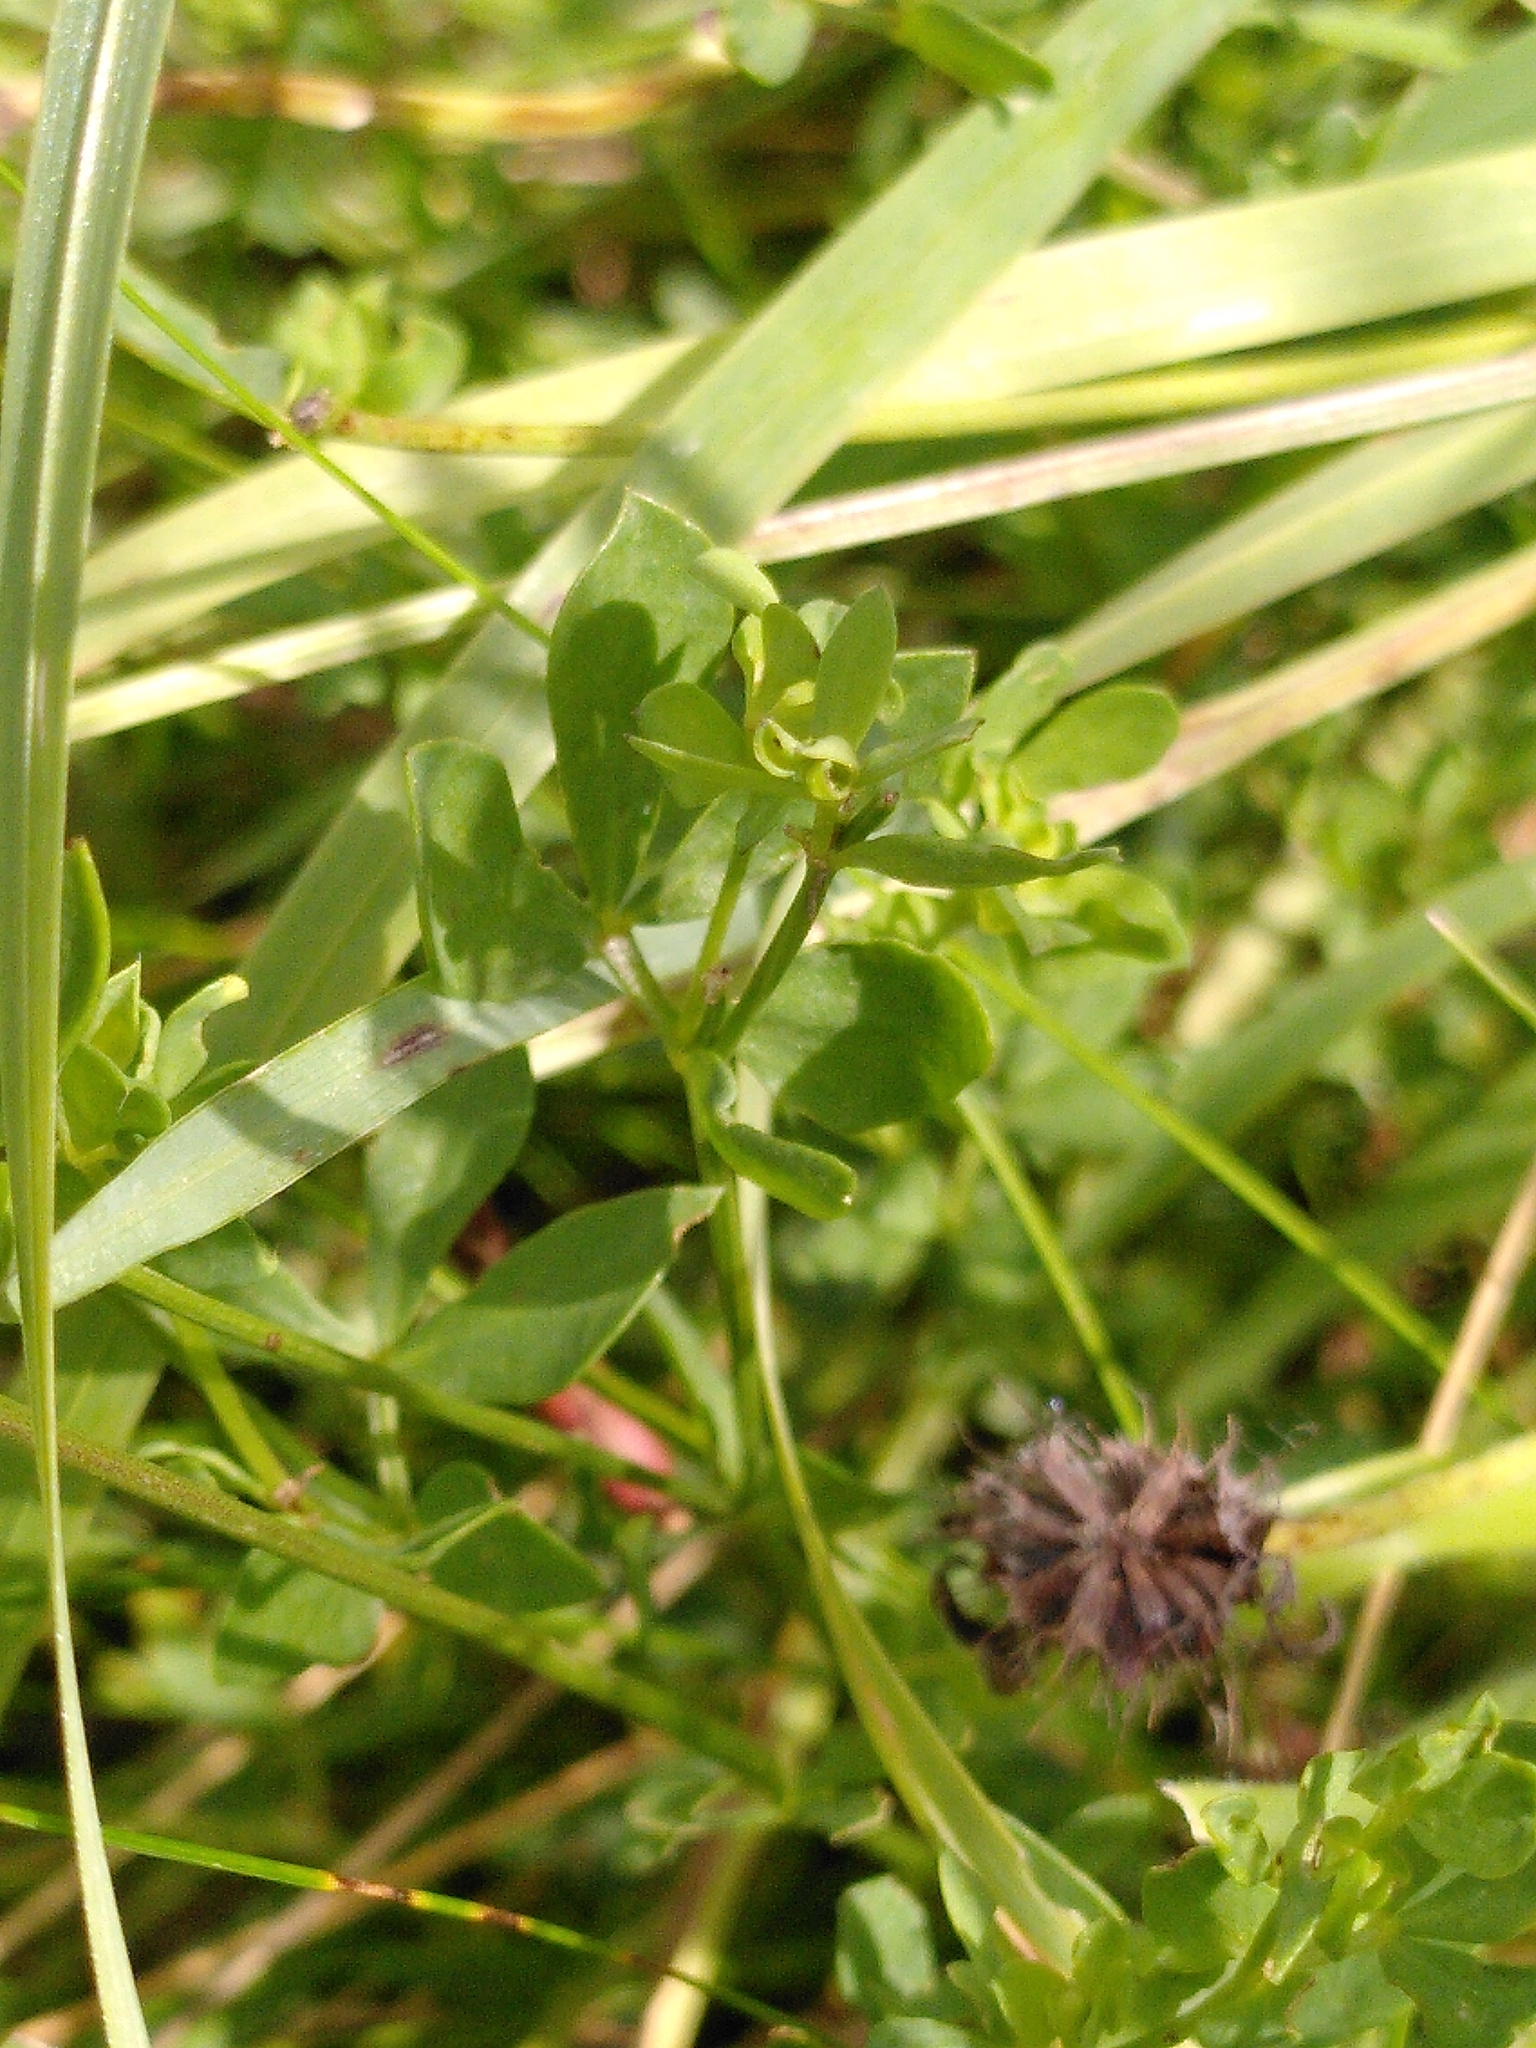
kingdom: Plantae
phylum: Tracheophyta
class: Magnoliopsida
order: Fabales
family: Fabaceae
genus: Lotus
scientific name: Lotus corniculatus
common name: Common bird's-foot-trefoil
